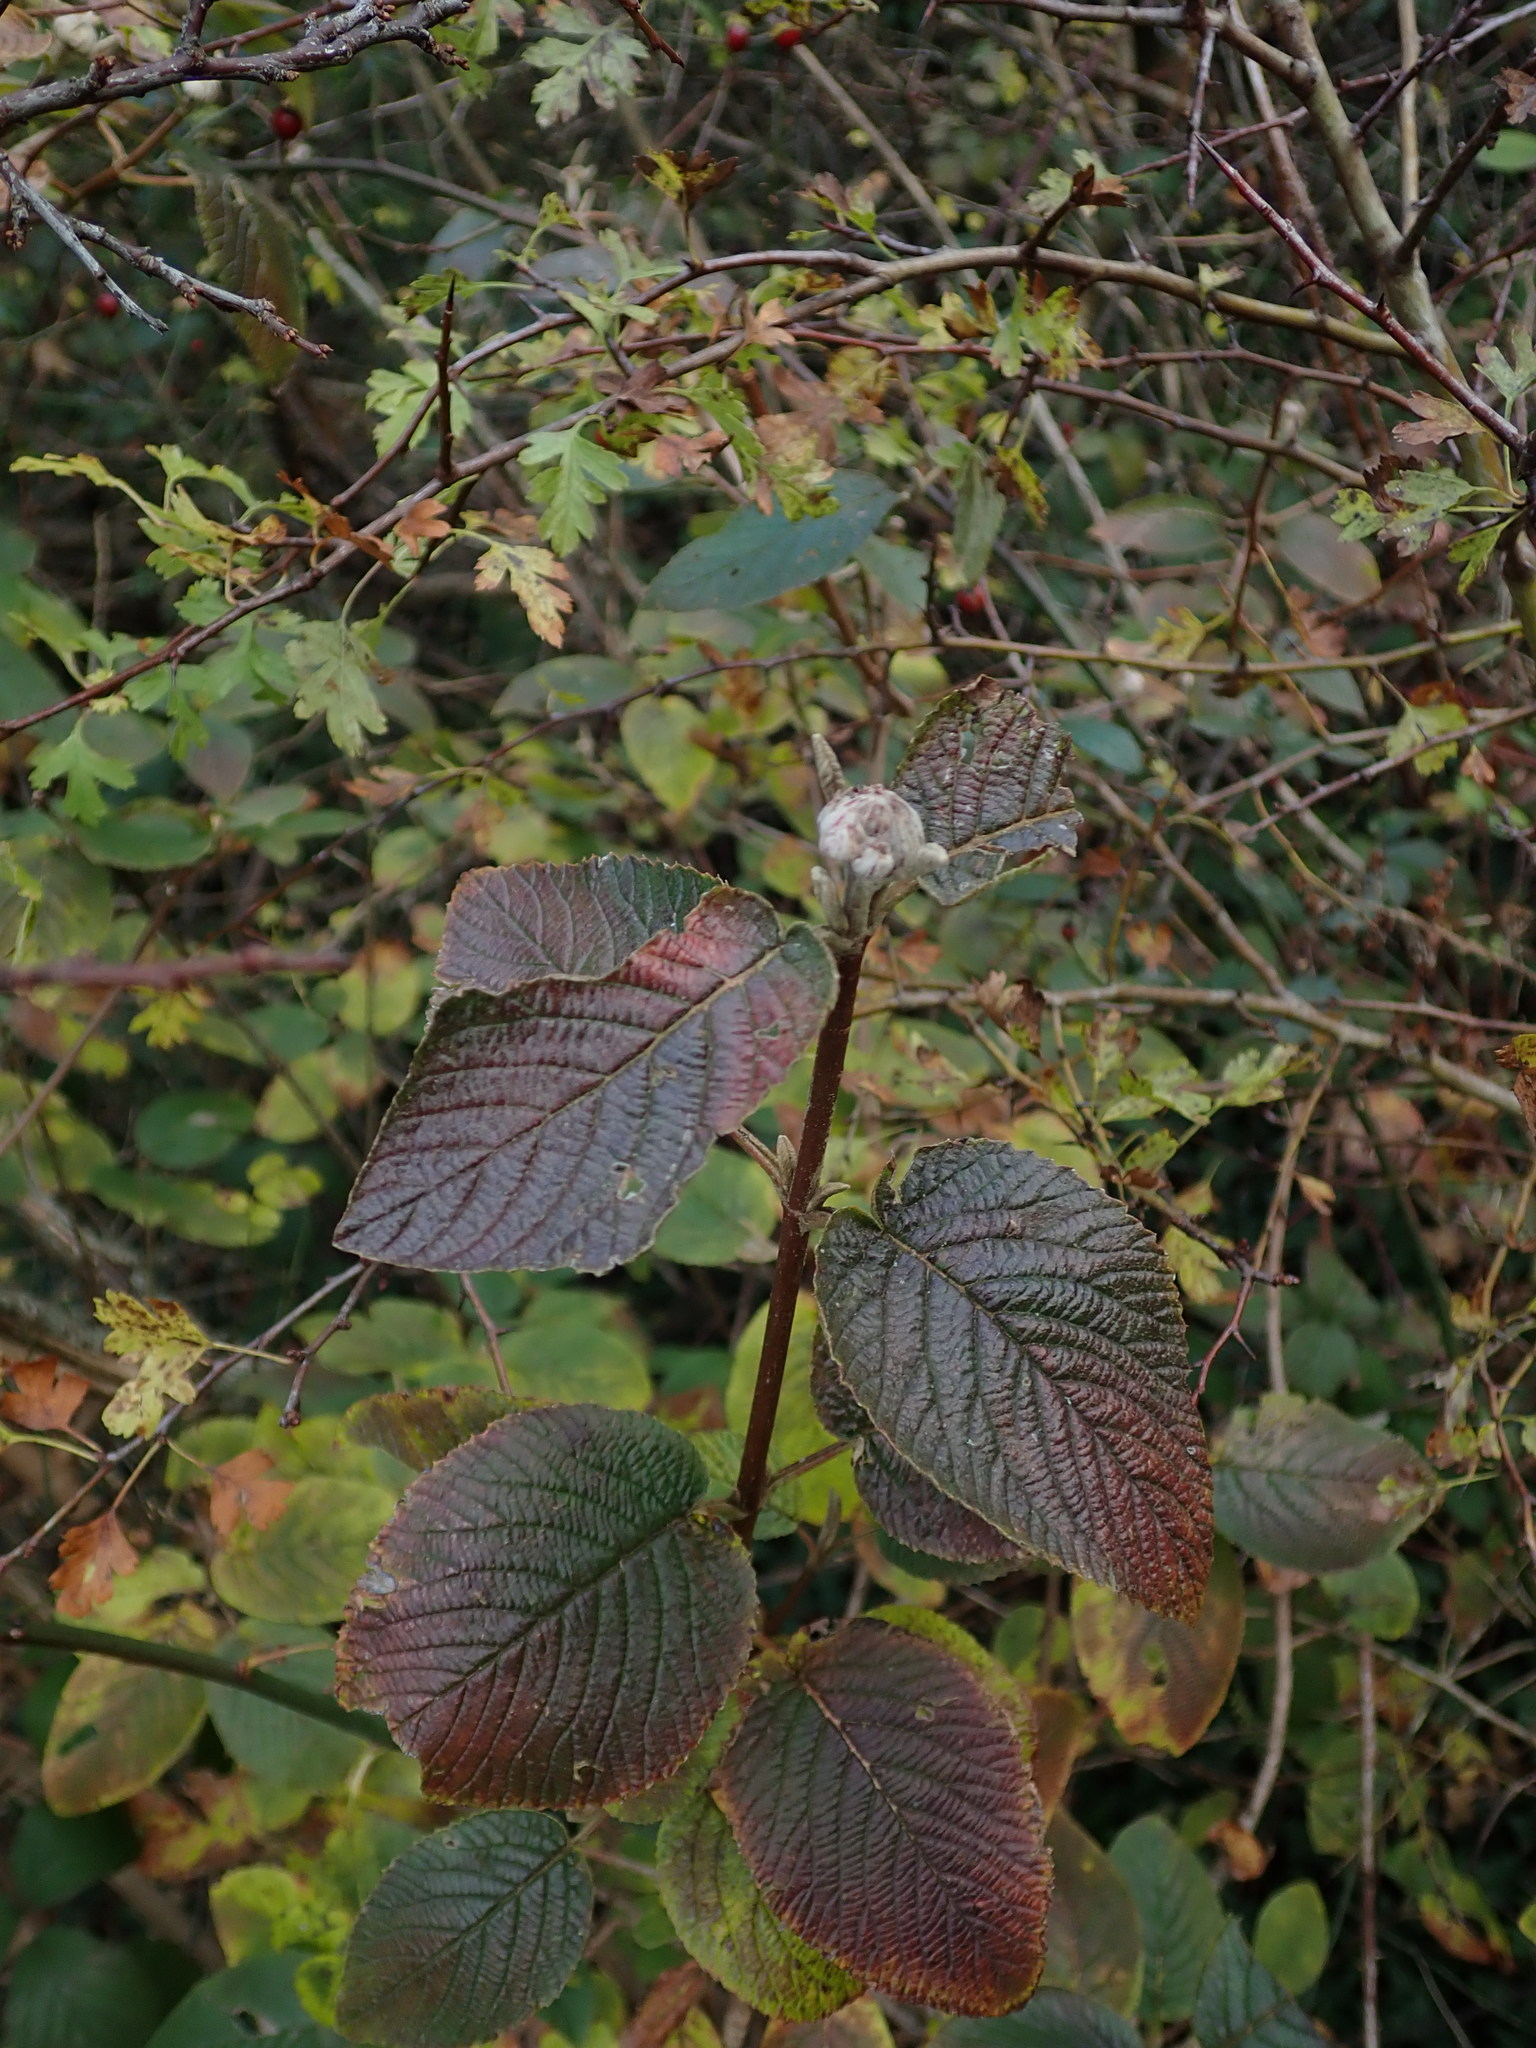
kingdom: Plantae
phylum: Tracheophyta
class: Magnoliopsida
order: Dipsacales
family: Viburnaceae
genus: Viburnum
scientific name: Viburnum lantana
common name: Wayfaring tree
